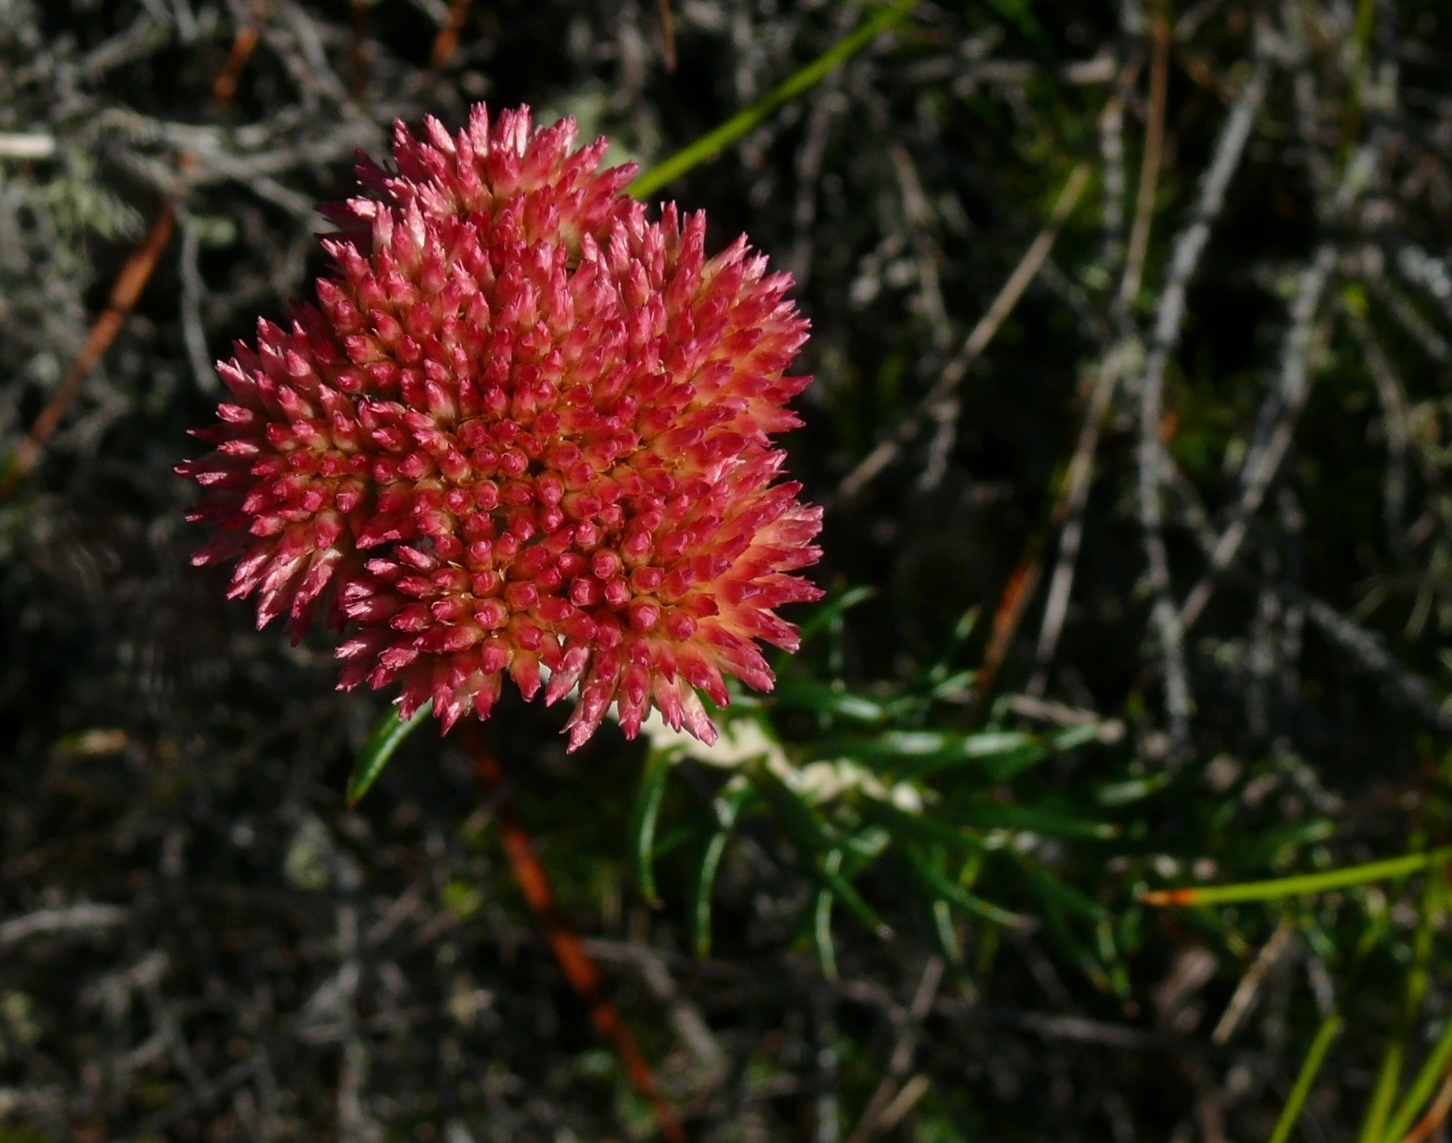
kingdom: Plantae
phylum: Tracheophyta
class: Magnoliopsida
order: Asterales
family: Asteraceae
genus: Anaxeton
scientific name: Anaxeton arborescens
